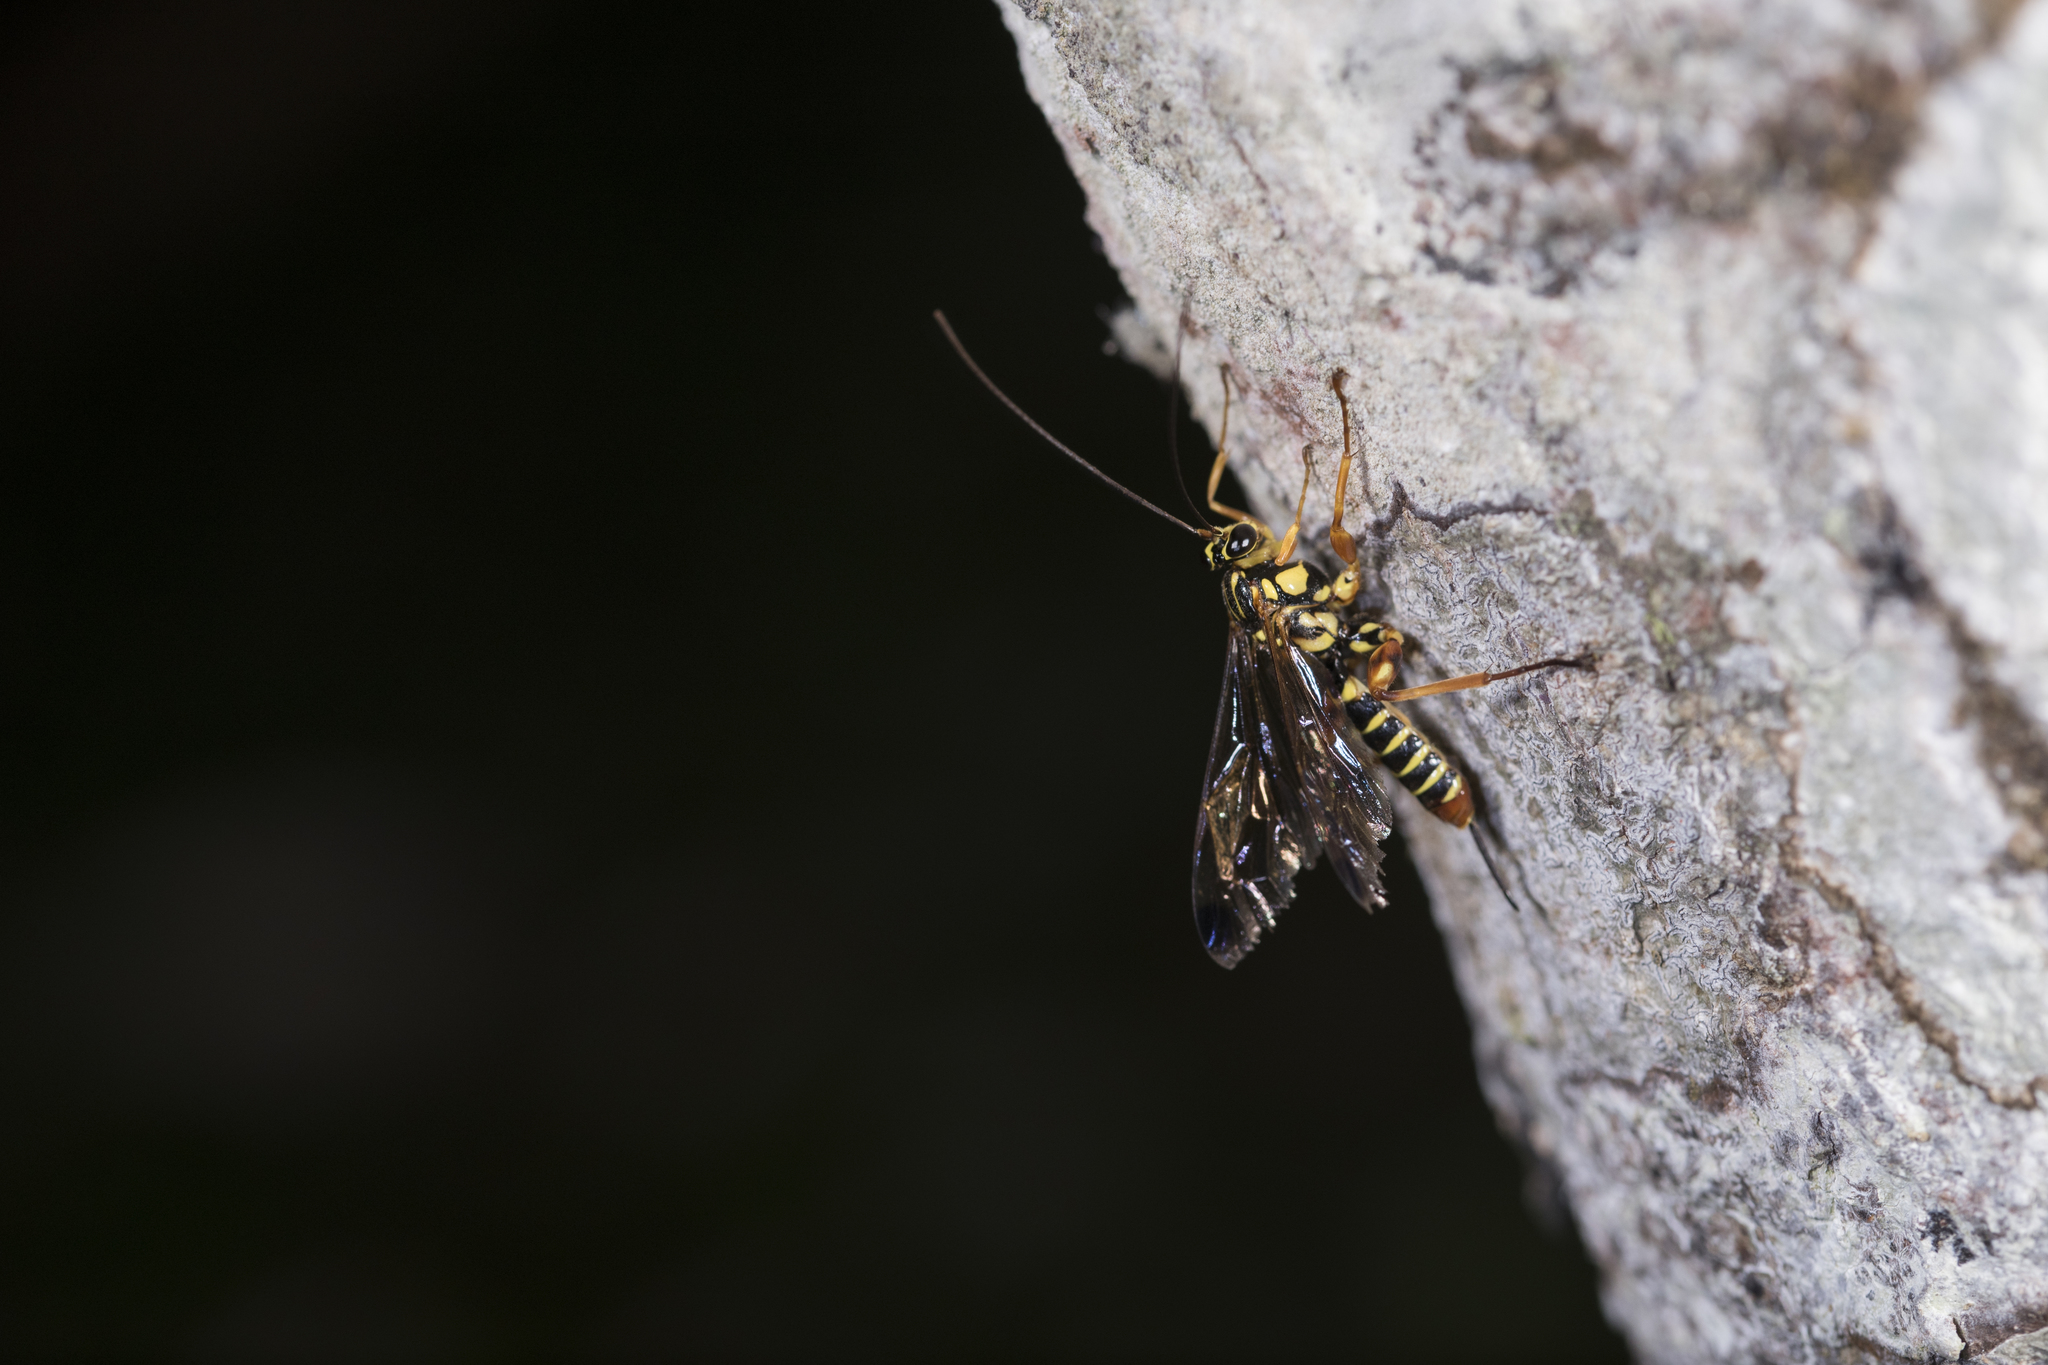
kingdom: Animalia
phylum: Arthropoda
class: Insecta
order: Hymenoptera
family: Ichneumonidae
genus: Echthromorpha
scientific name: Echthromorpha agrestoria
